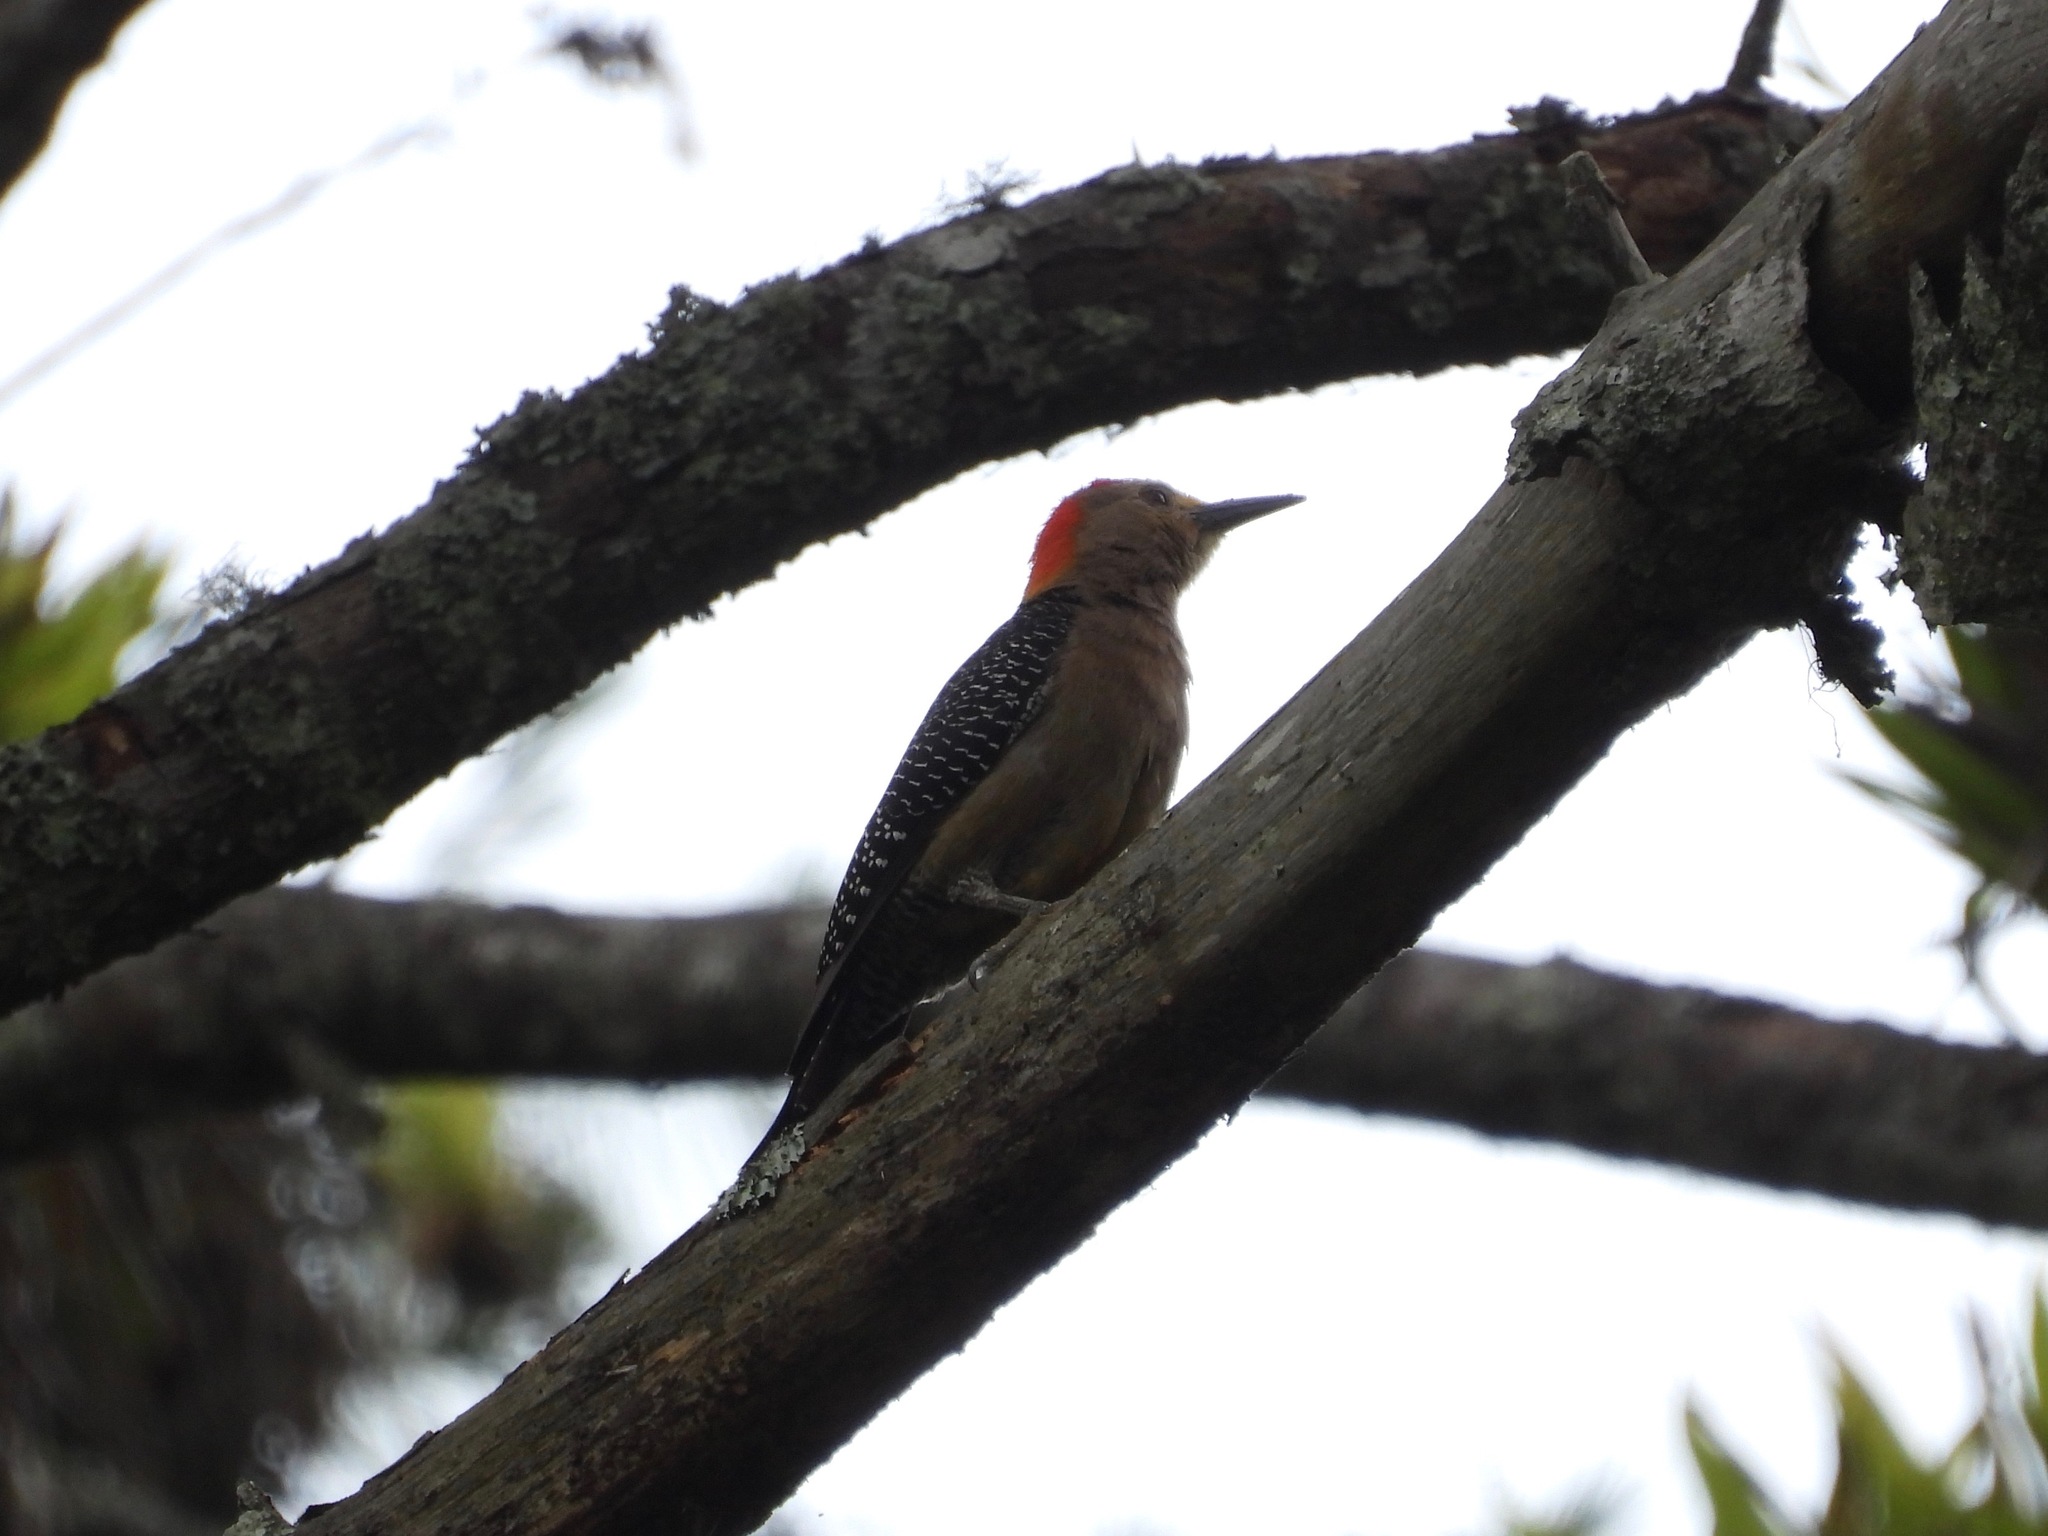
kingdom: Animalia
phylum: Chordata
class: Aves
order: Piciformes
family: Picidae
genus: Melanerpes
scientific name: Melanerpes aurifrons
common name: Golden-fronted woodpecker
